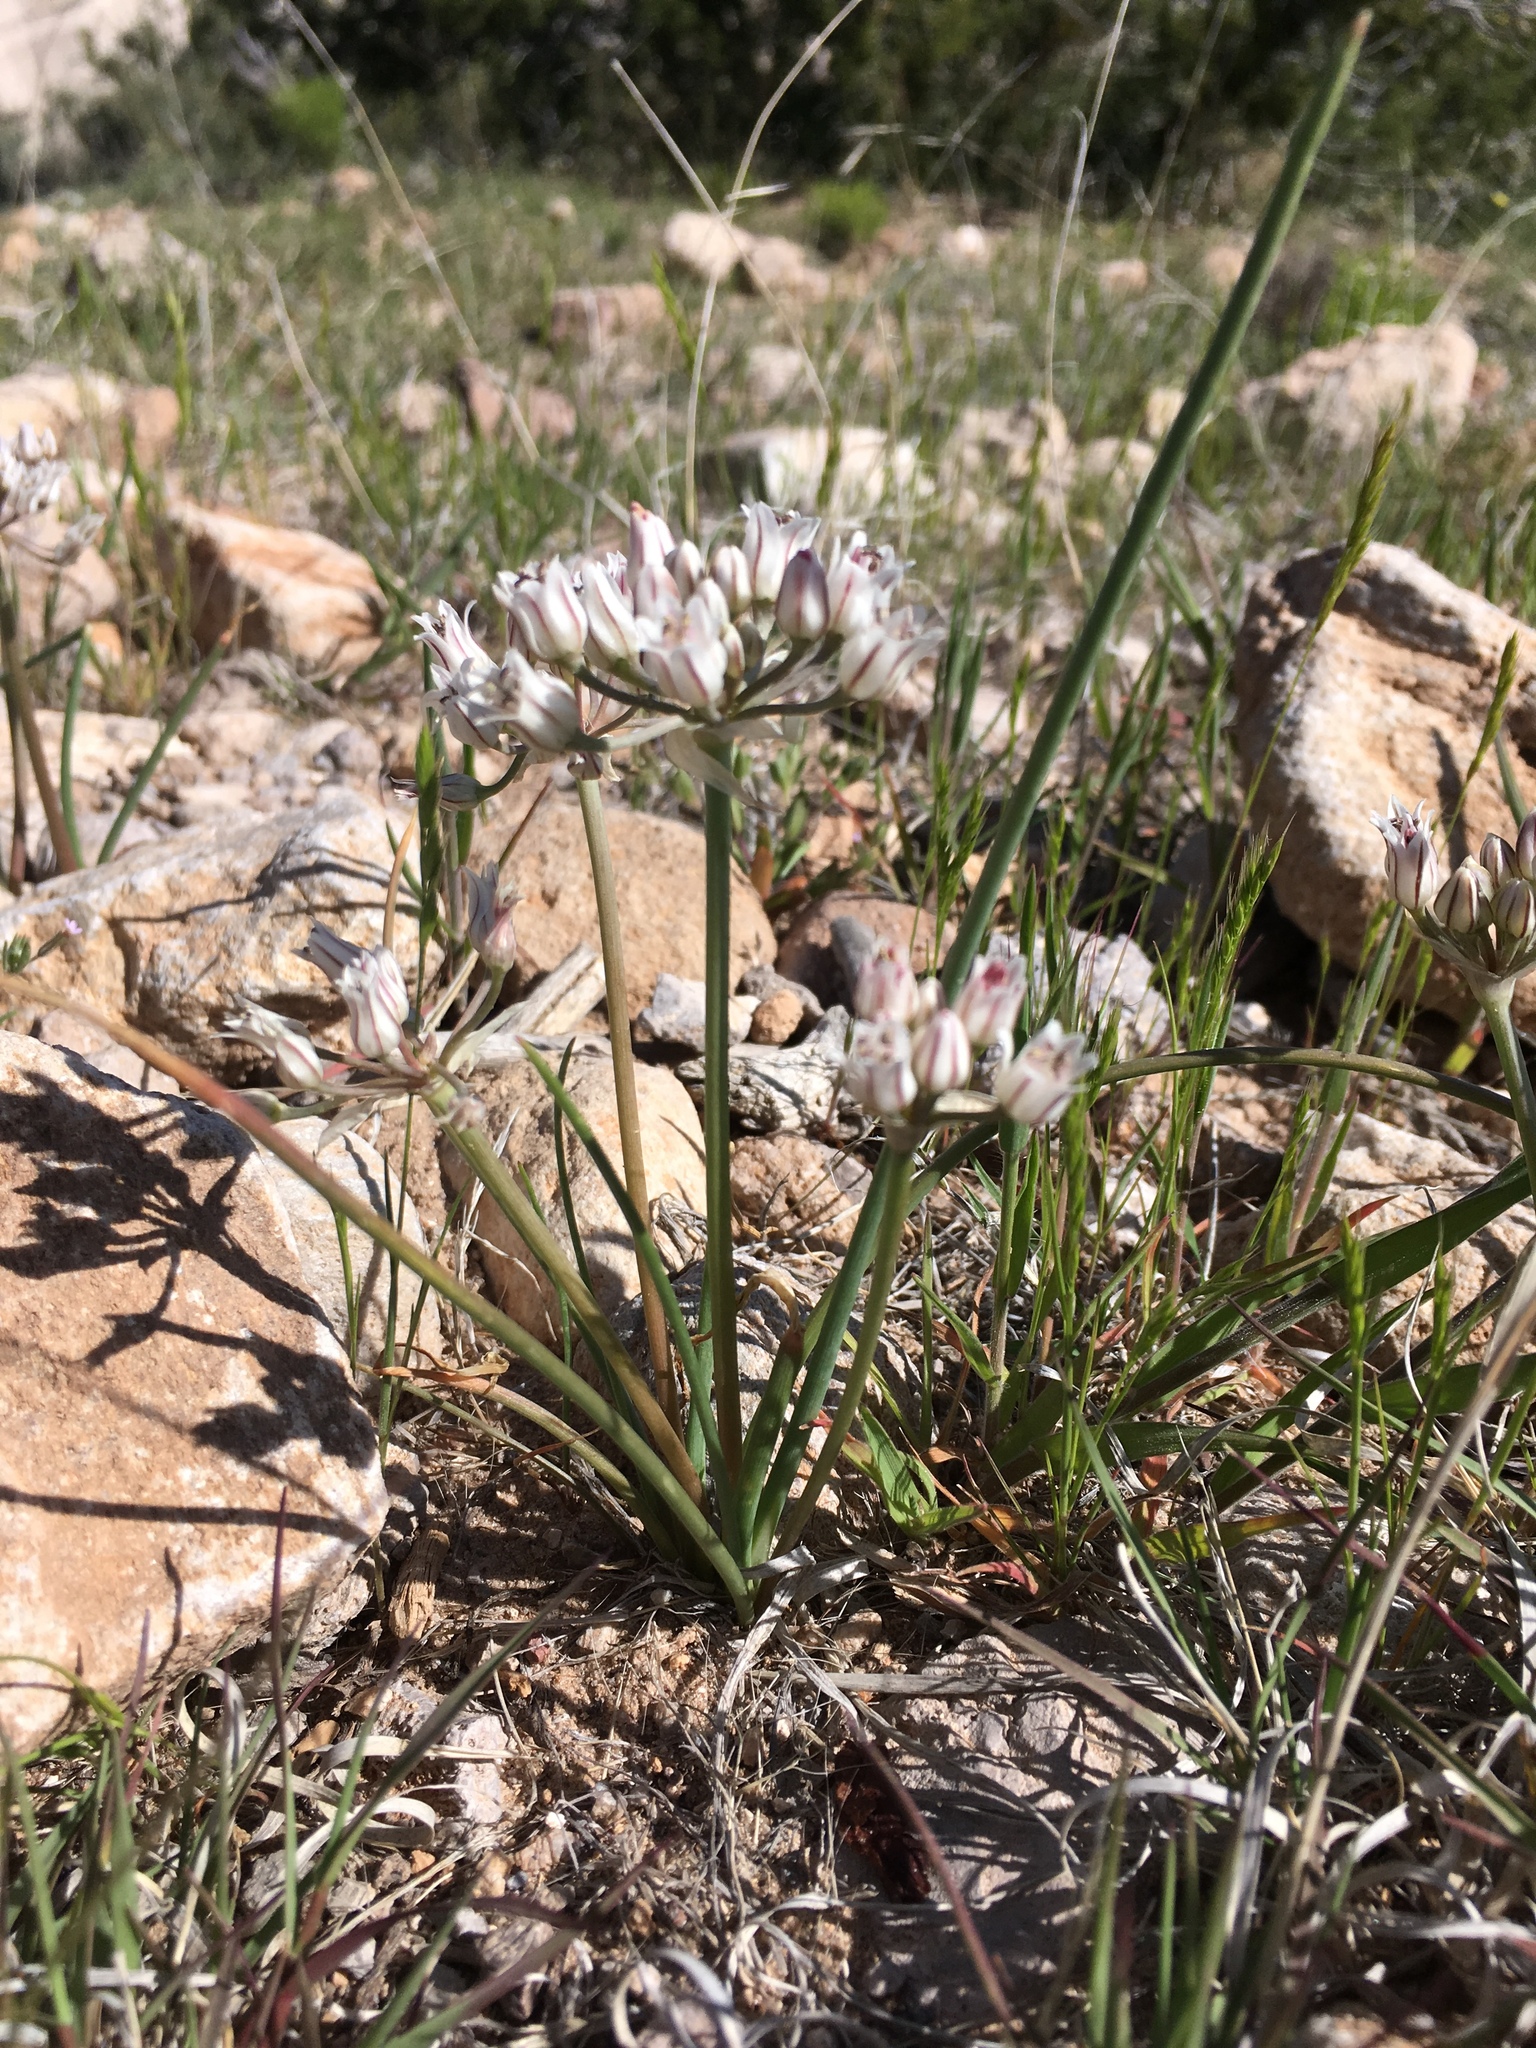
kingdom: Plantae
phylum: Tracheophyta
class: Liliopsida
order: Asparagales
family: Amaryllidaceae
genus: Allium
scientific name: Allium macropetalum
